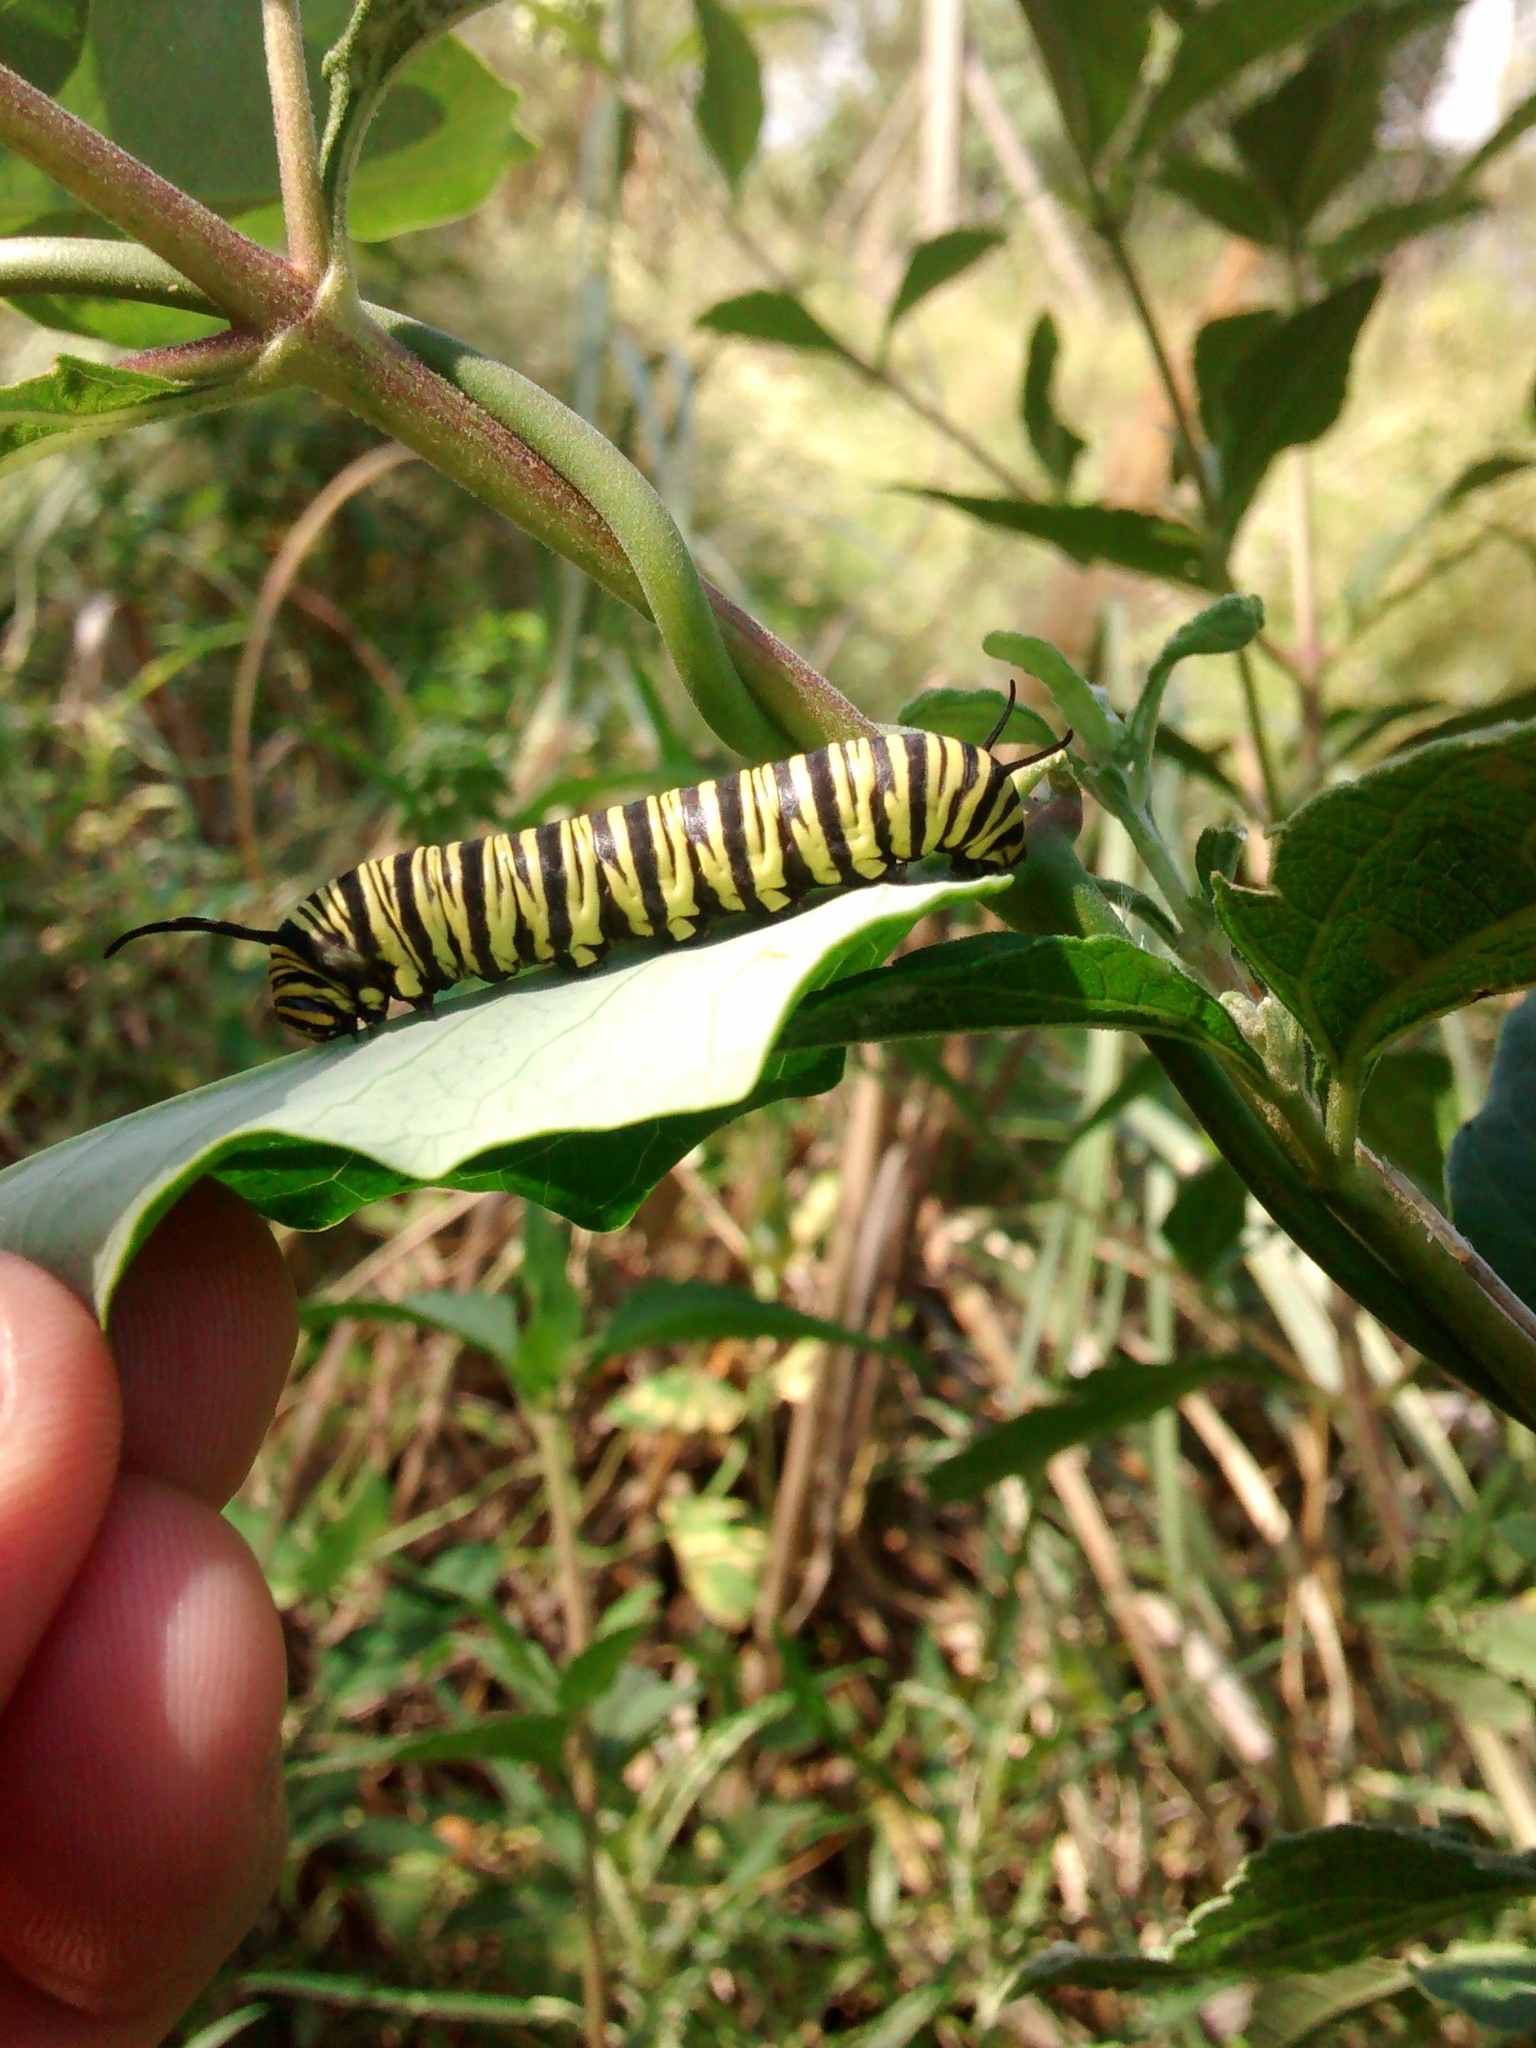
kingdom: Animalia
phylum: Arthropoda
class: Insecta
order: Lepidoptera
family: Nymphalidae
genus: Danaus
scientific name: Danaus erippus
